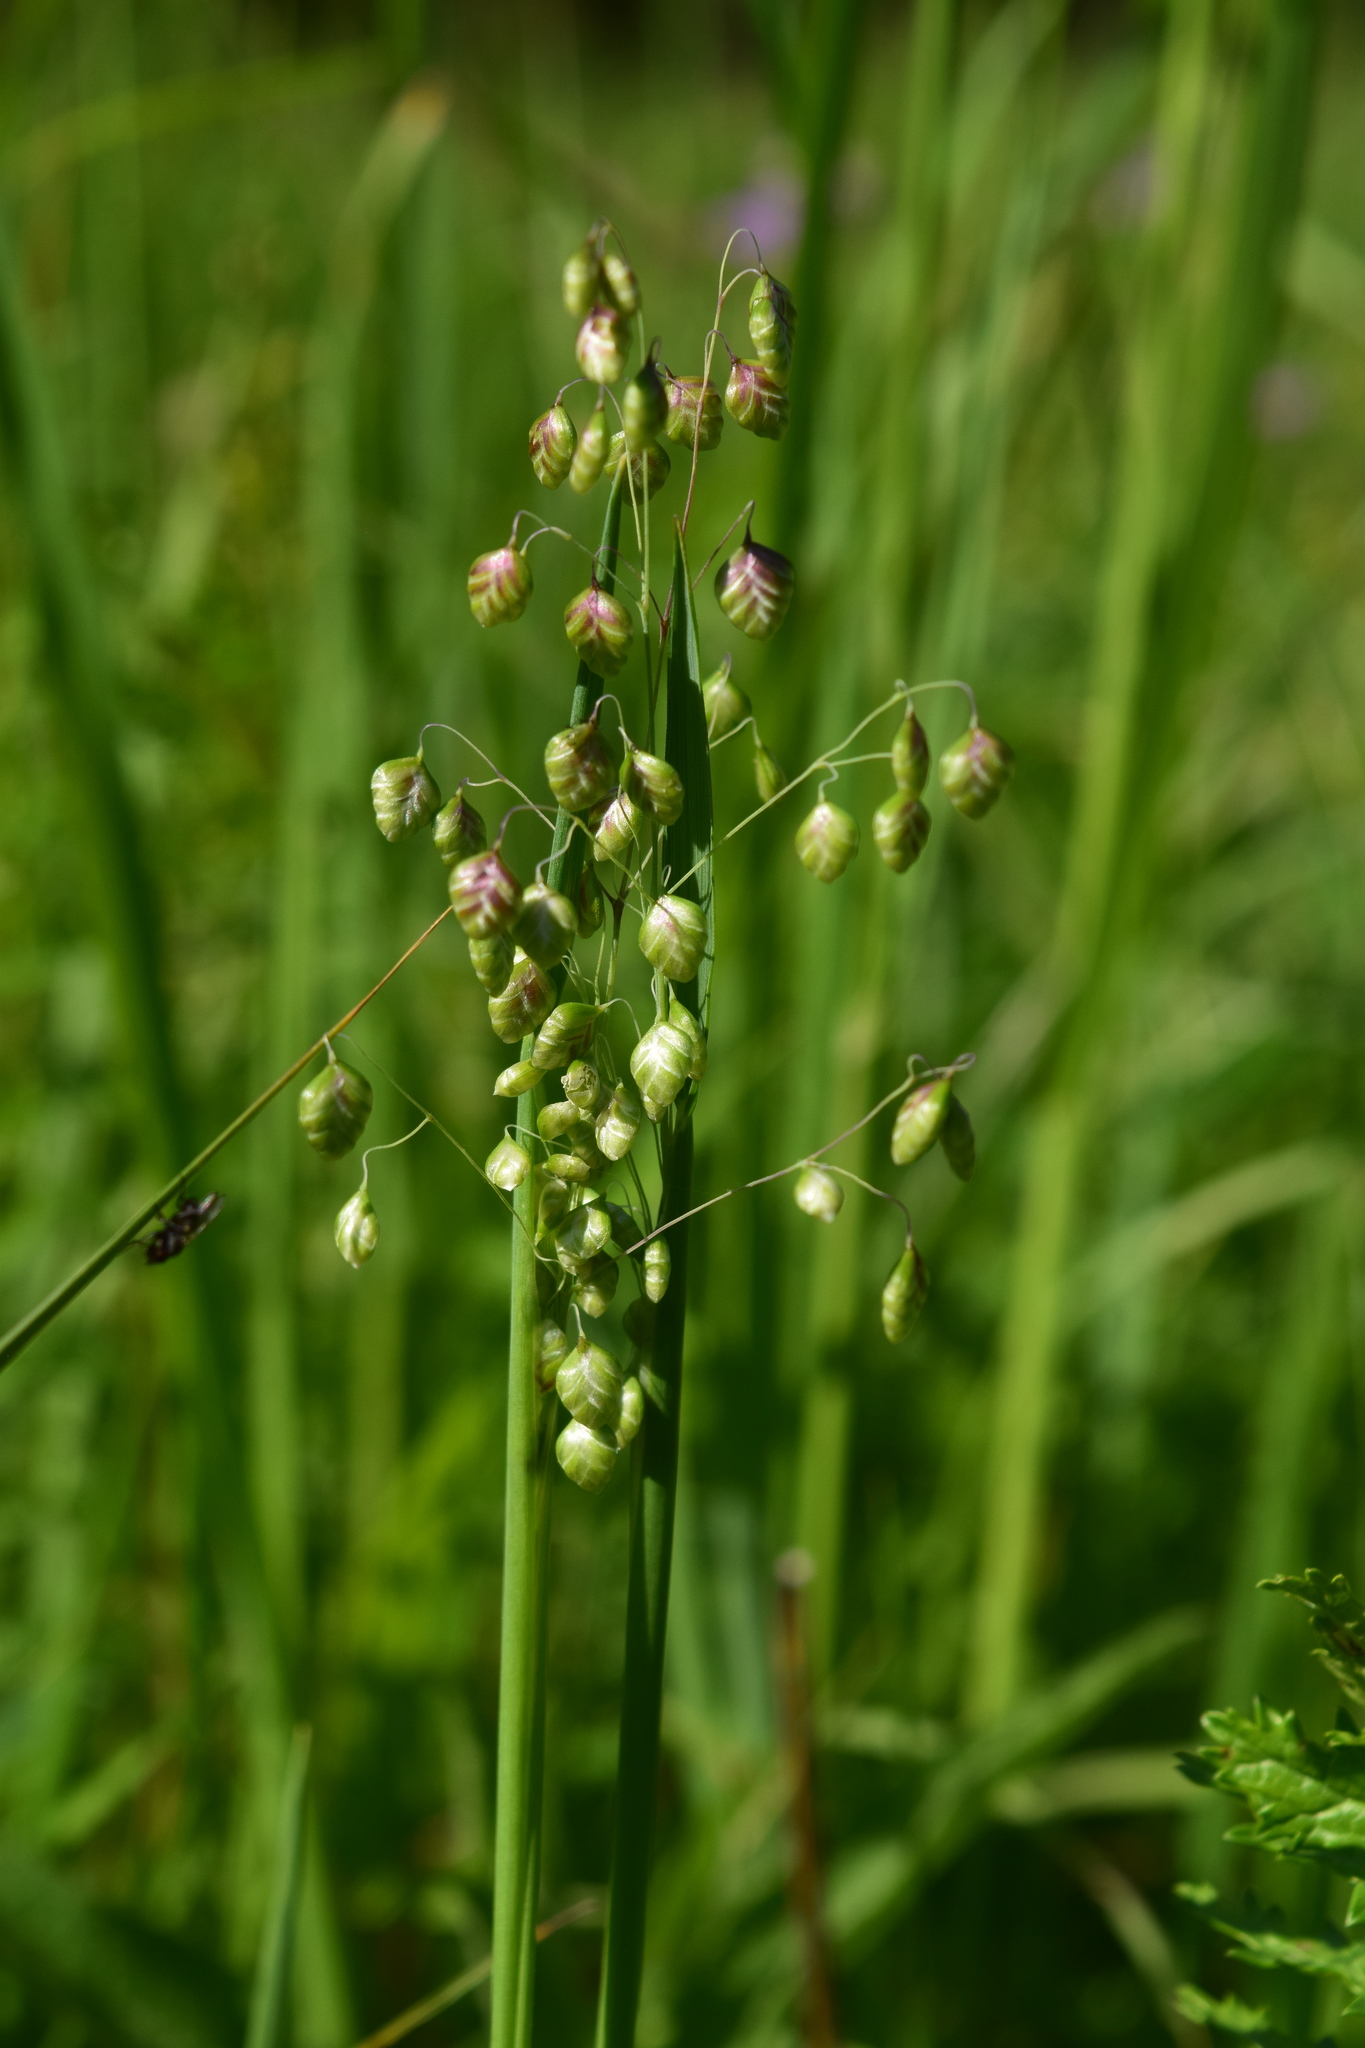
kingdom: Plantae
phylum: Tracheophyta
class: Liliopsida
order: Poales
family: Poaceae
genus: Briza
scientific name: Briza media
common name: Quaking grass
